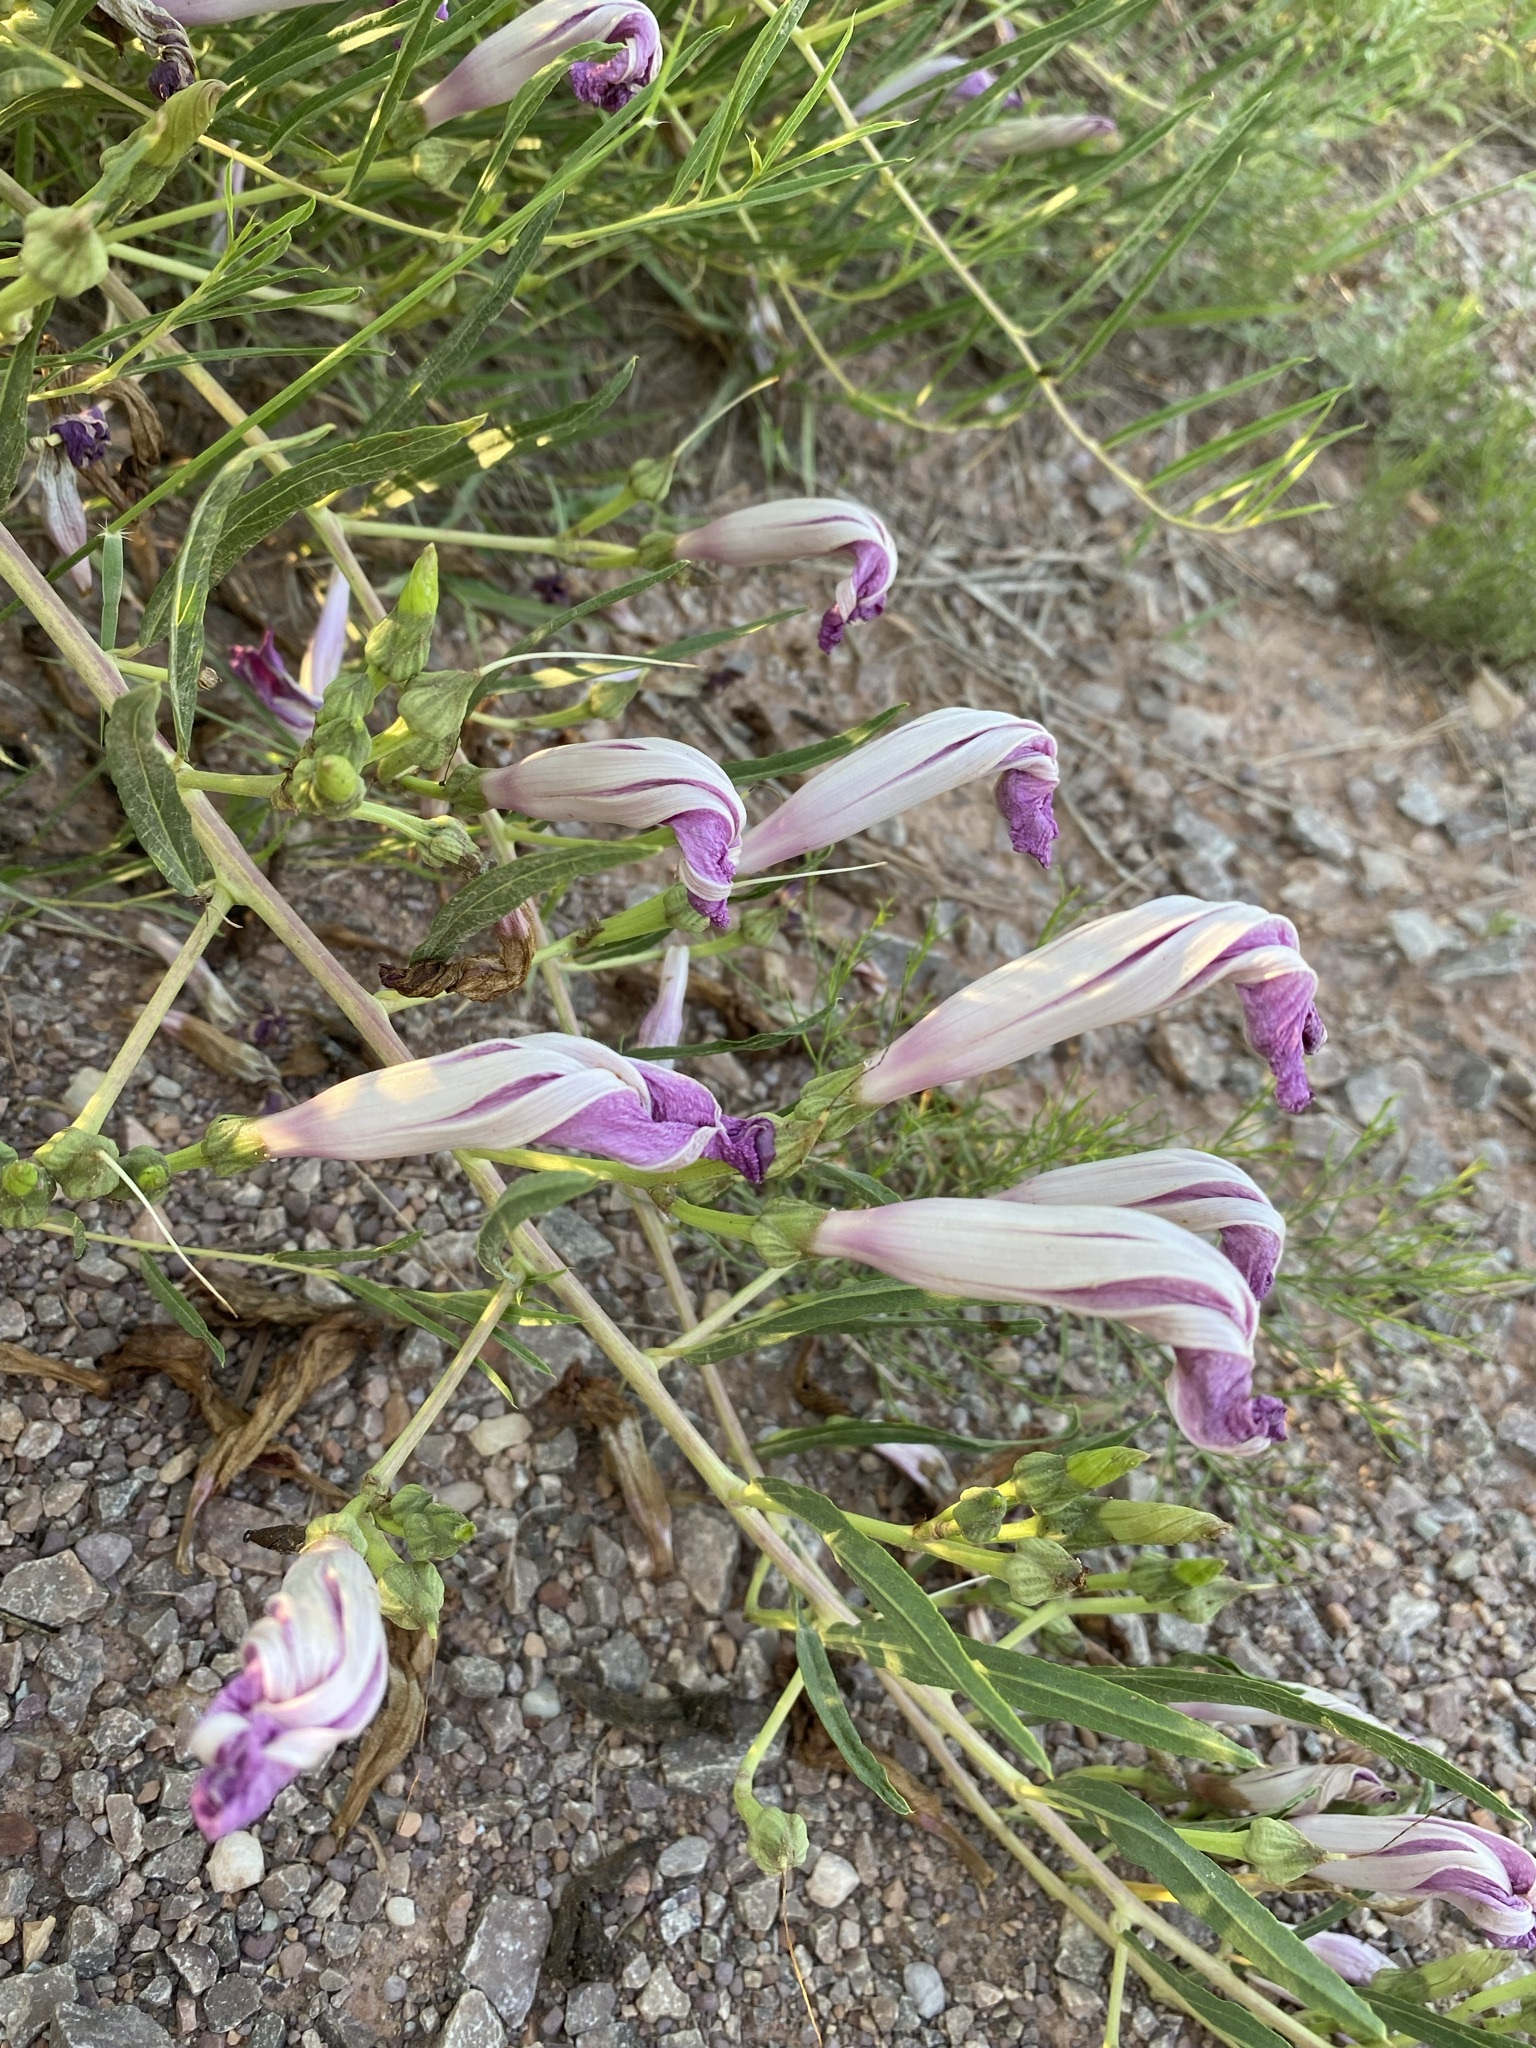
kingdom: Plantae
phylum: Tracheophyta
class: Magnoliopsida
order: Solanales
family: Convolvulaceae
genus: Ipomoea
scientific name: Ipomoea leptophylla
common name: Bush moonflower
